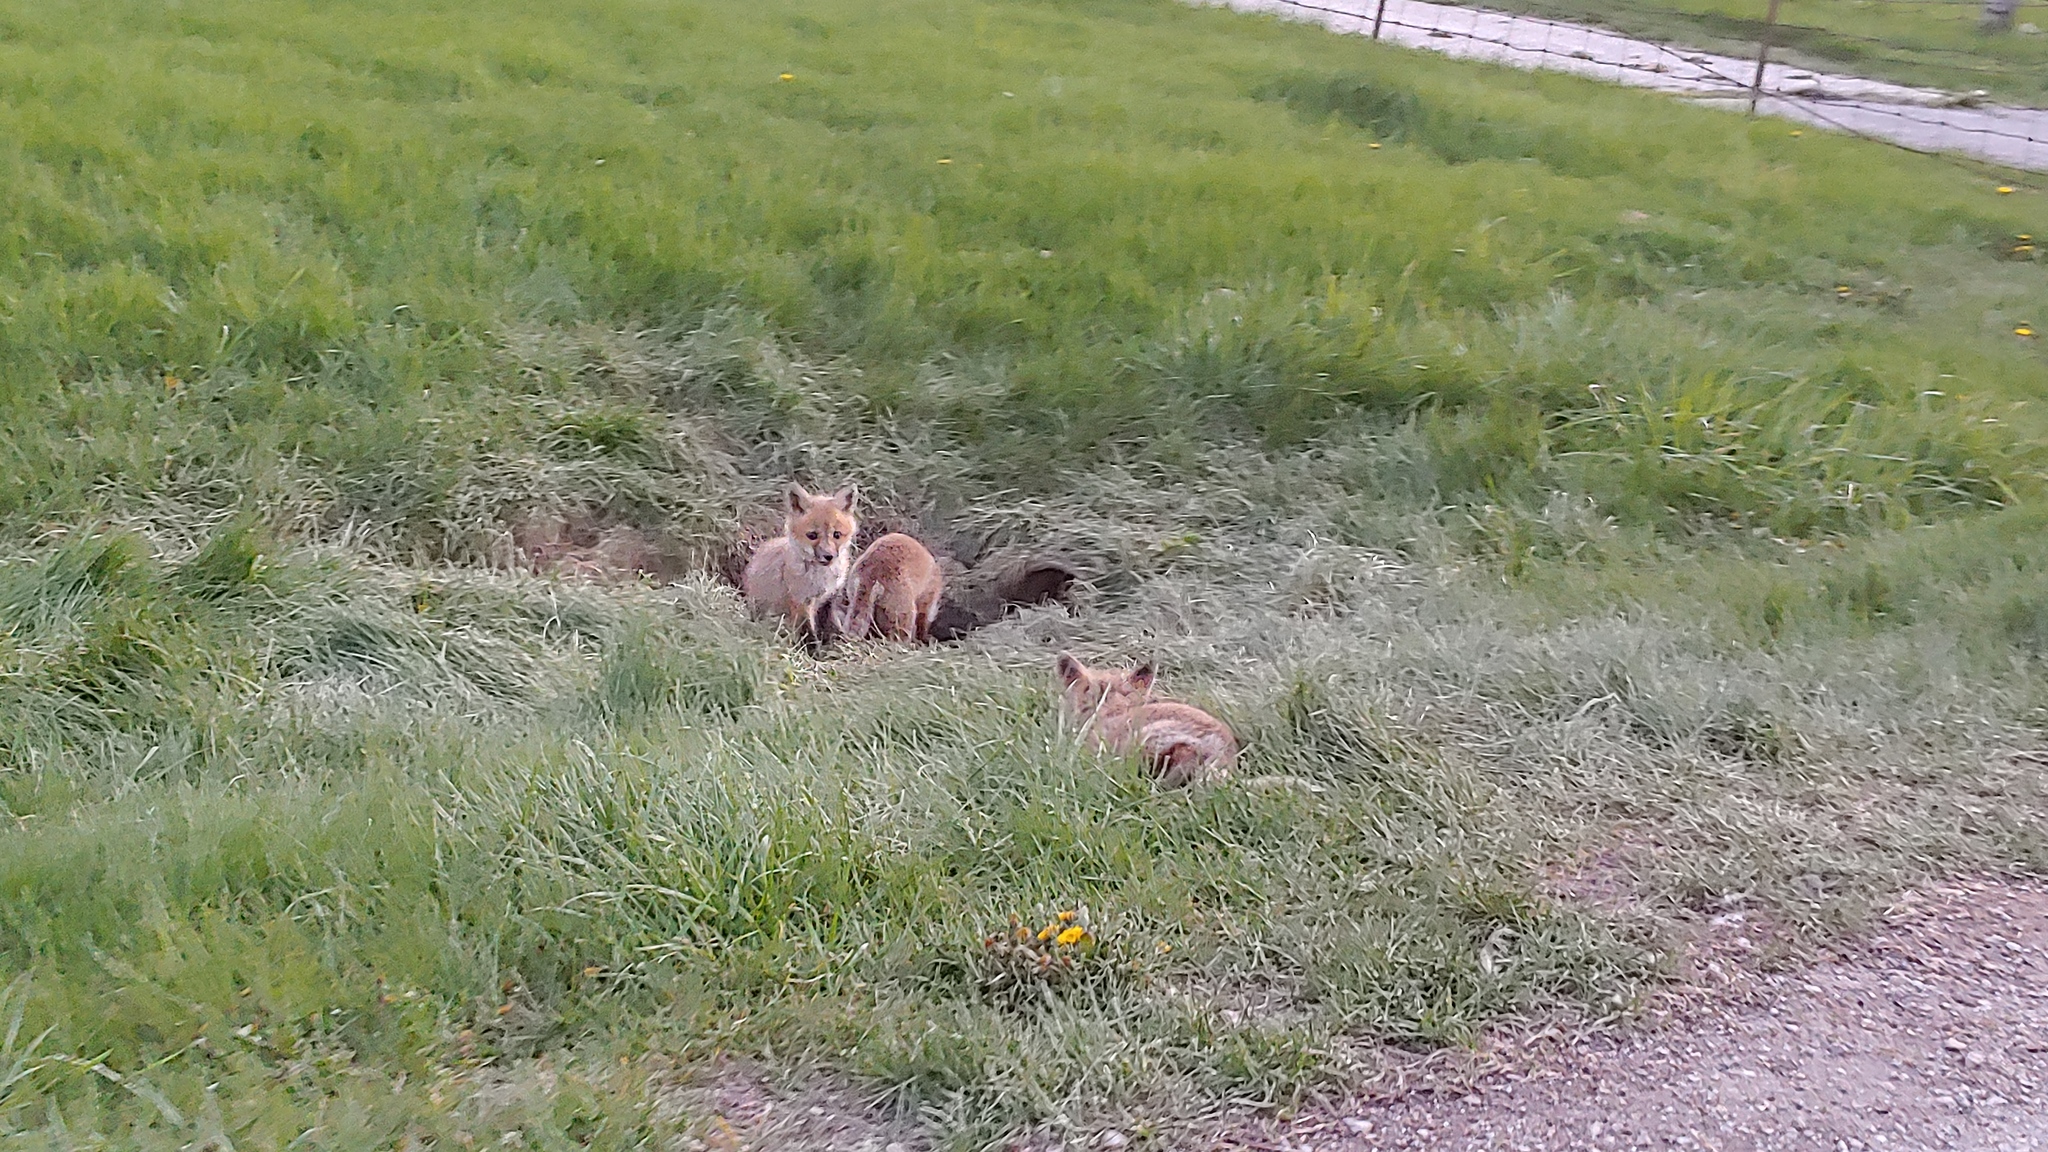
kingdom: Animalia
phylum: Chordata
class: Mammalia
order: Carnivora
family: Canidae
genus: Vulpes
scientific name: Vulpes vulpes
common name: Red fox
